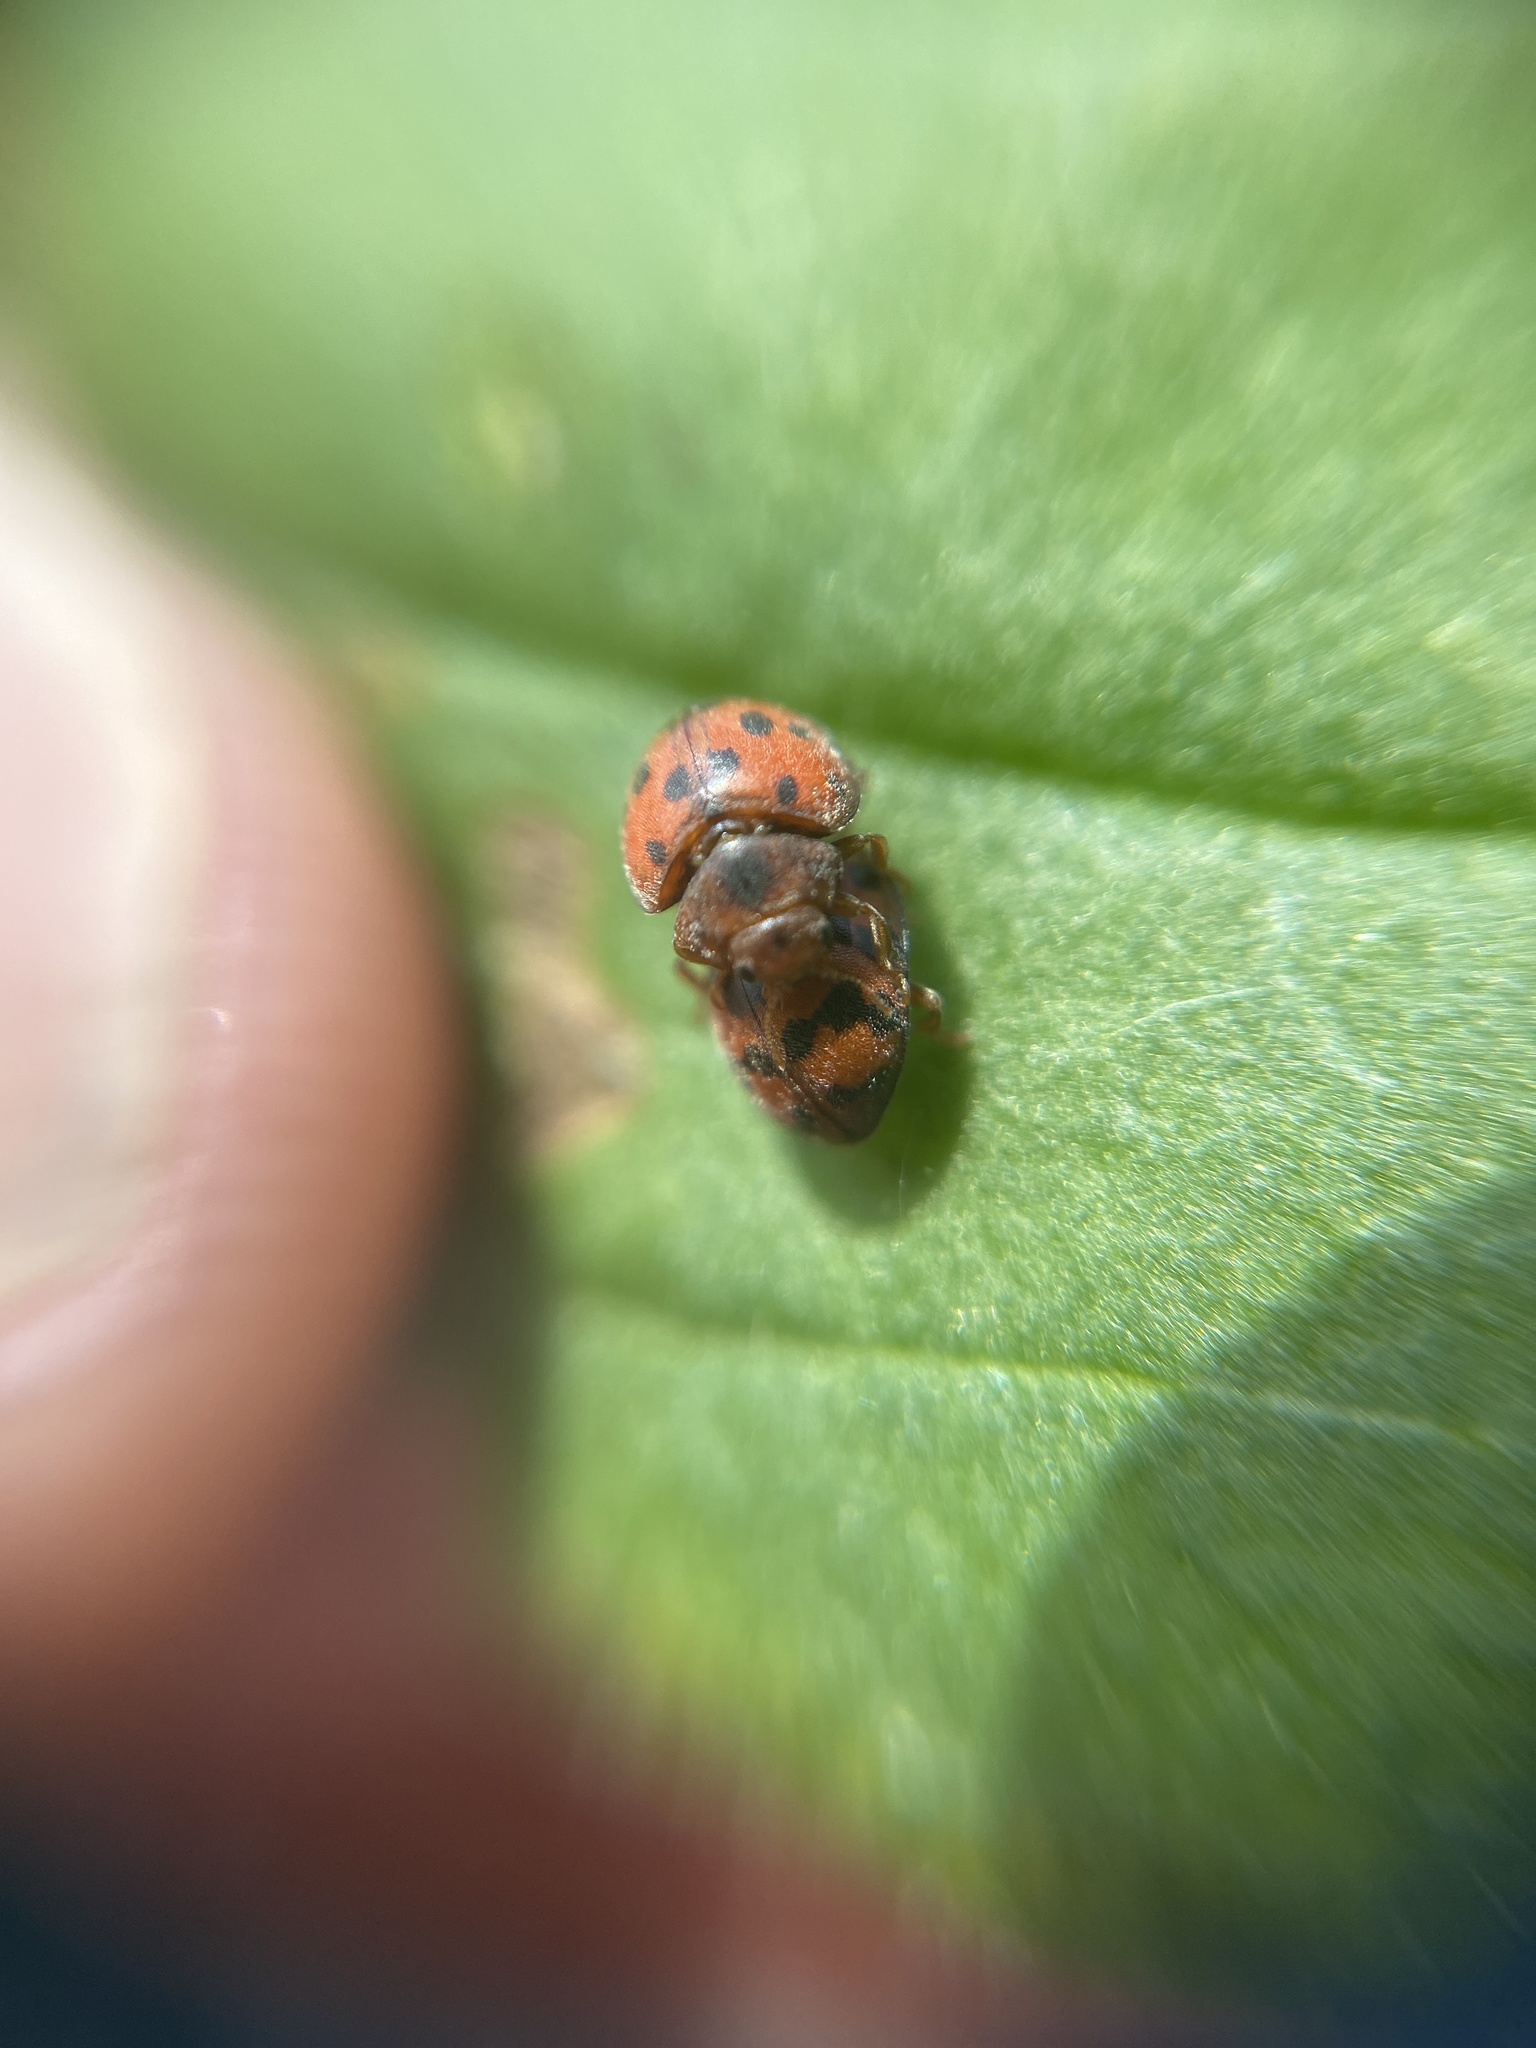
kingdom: Animalia
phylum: Arthropoda
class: Insecta
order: Coleoptera
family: Coccinellidae
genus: Subcoccinella
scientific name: Subcoccinella vigintiquatuorpunctata
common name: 24-spot ladybird
